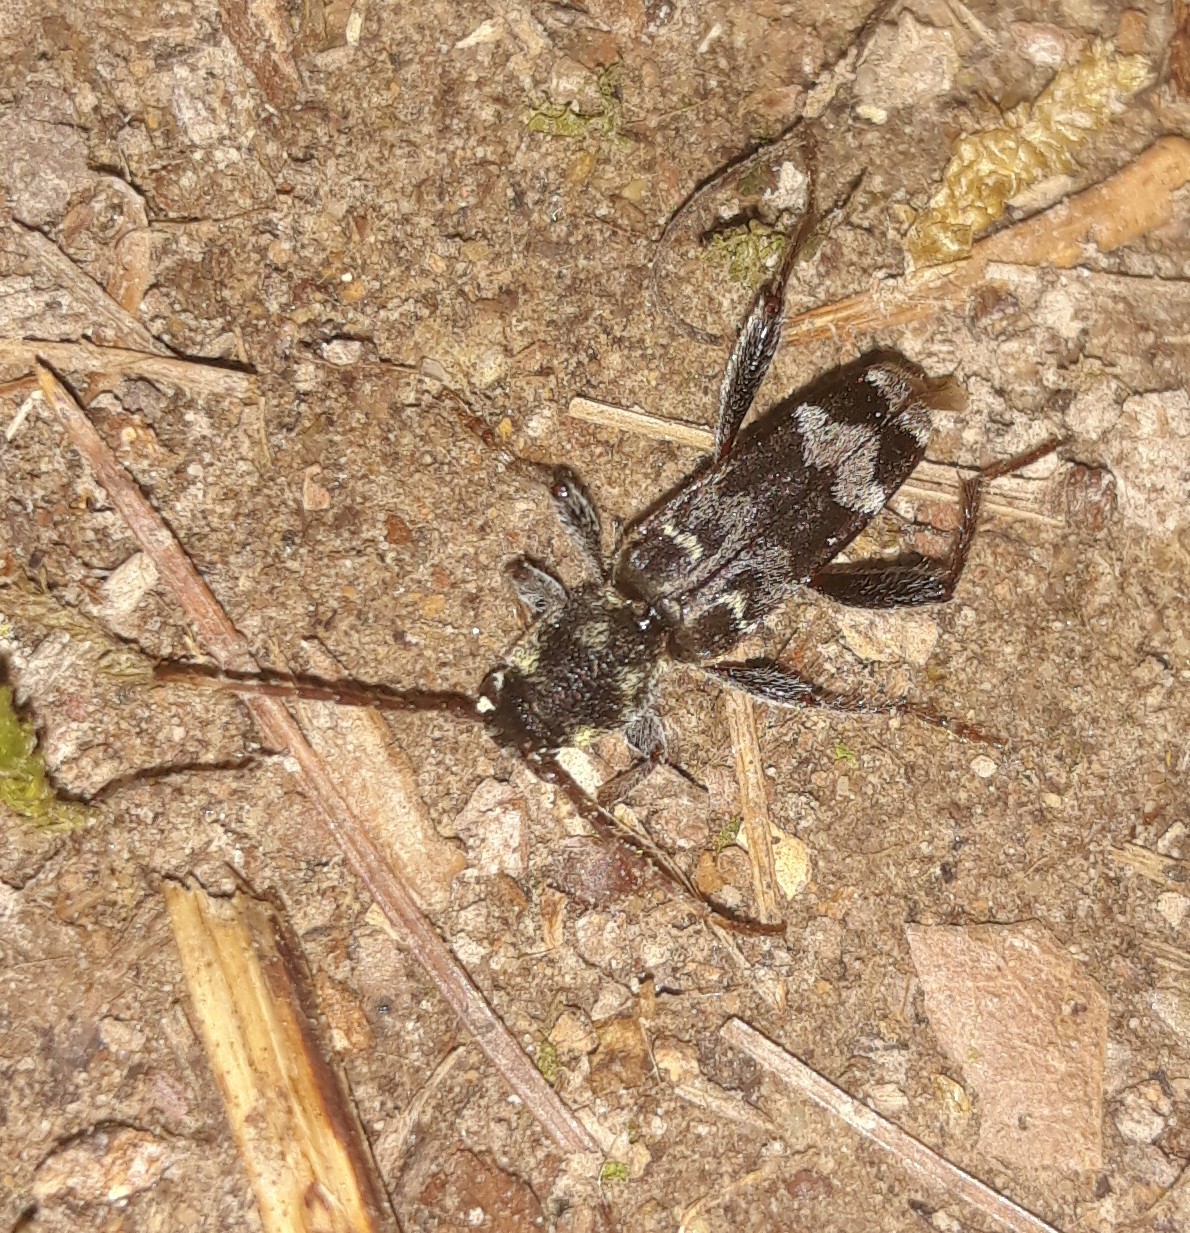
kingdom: Animalia
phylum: Arthropoda
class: Insecta
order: Coleoptera
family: Cerambycidae
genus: Xylotrechus
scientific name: Xylotrechus colonus
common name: Long-horned beetle
